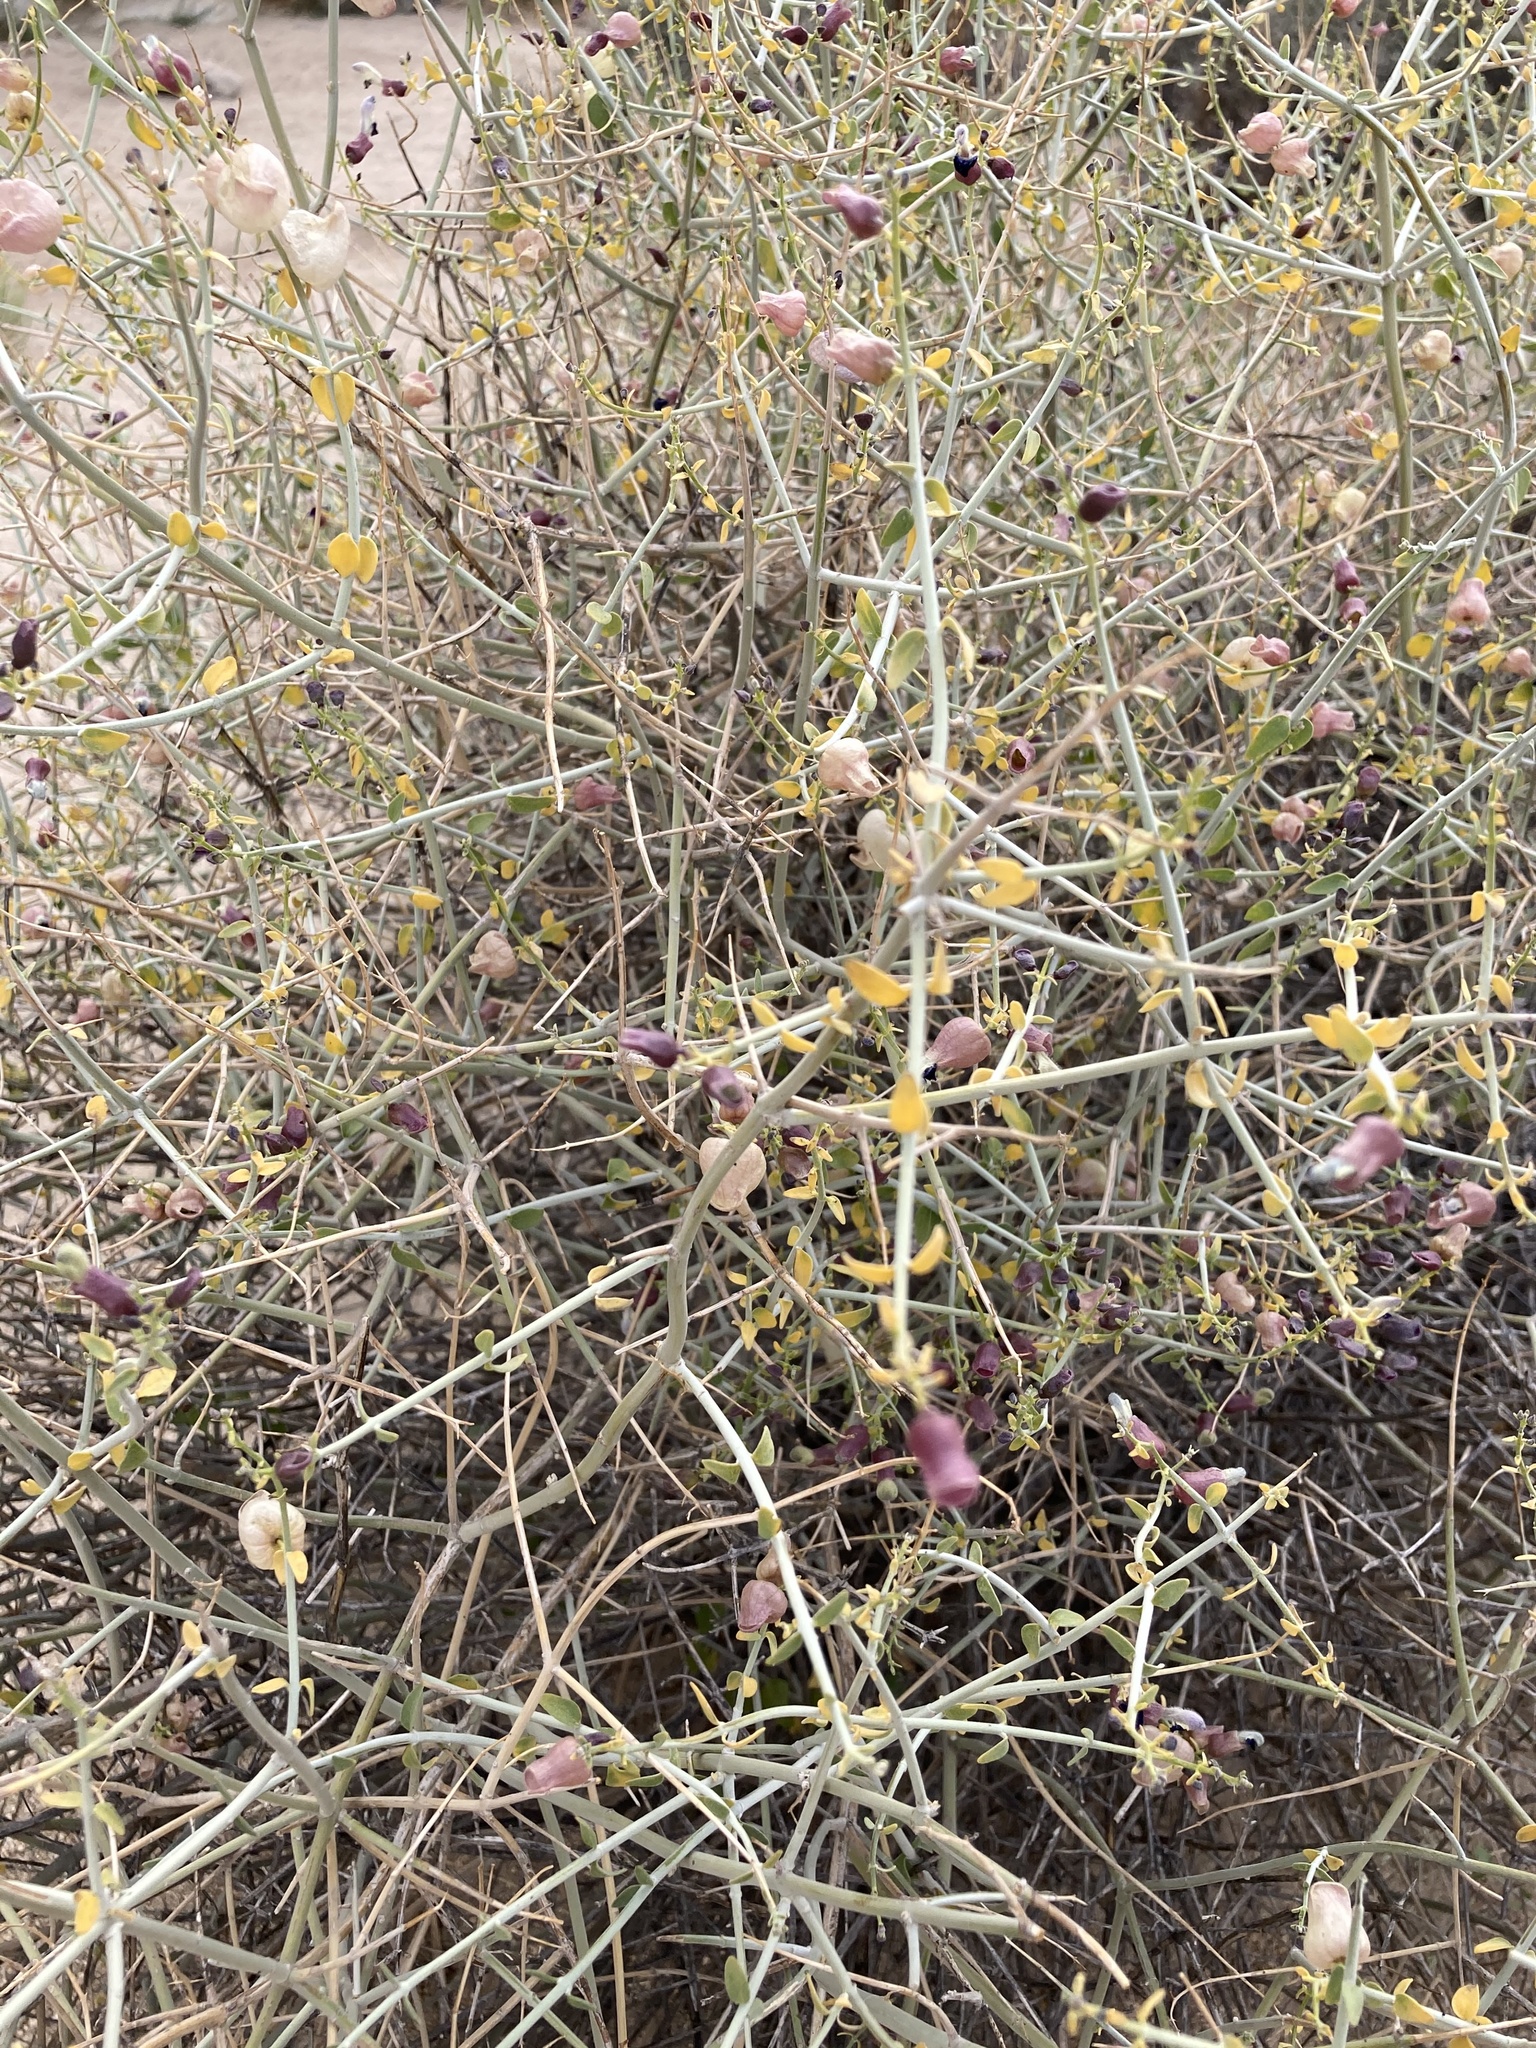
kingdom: Plantae
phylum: Tracheophyta
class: Magnoliopsida
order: Lamiales
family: Lamiaceae
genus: Scutellaria
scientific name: Scutellaria mexicana
